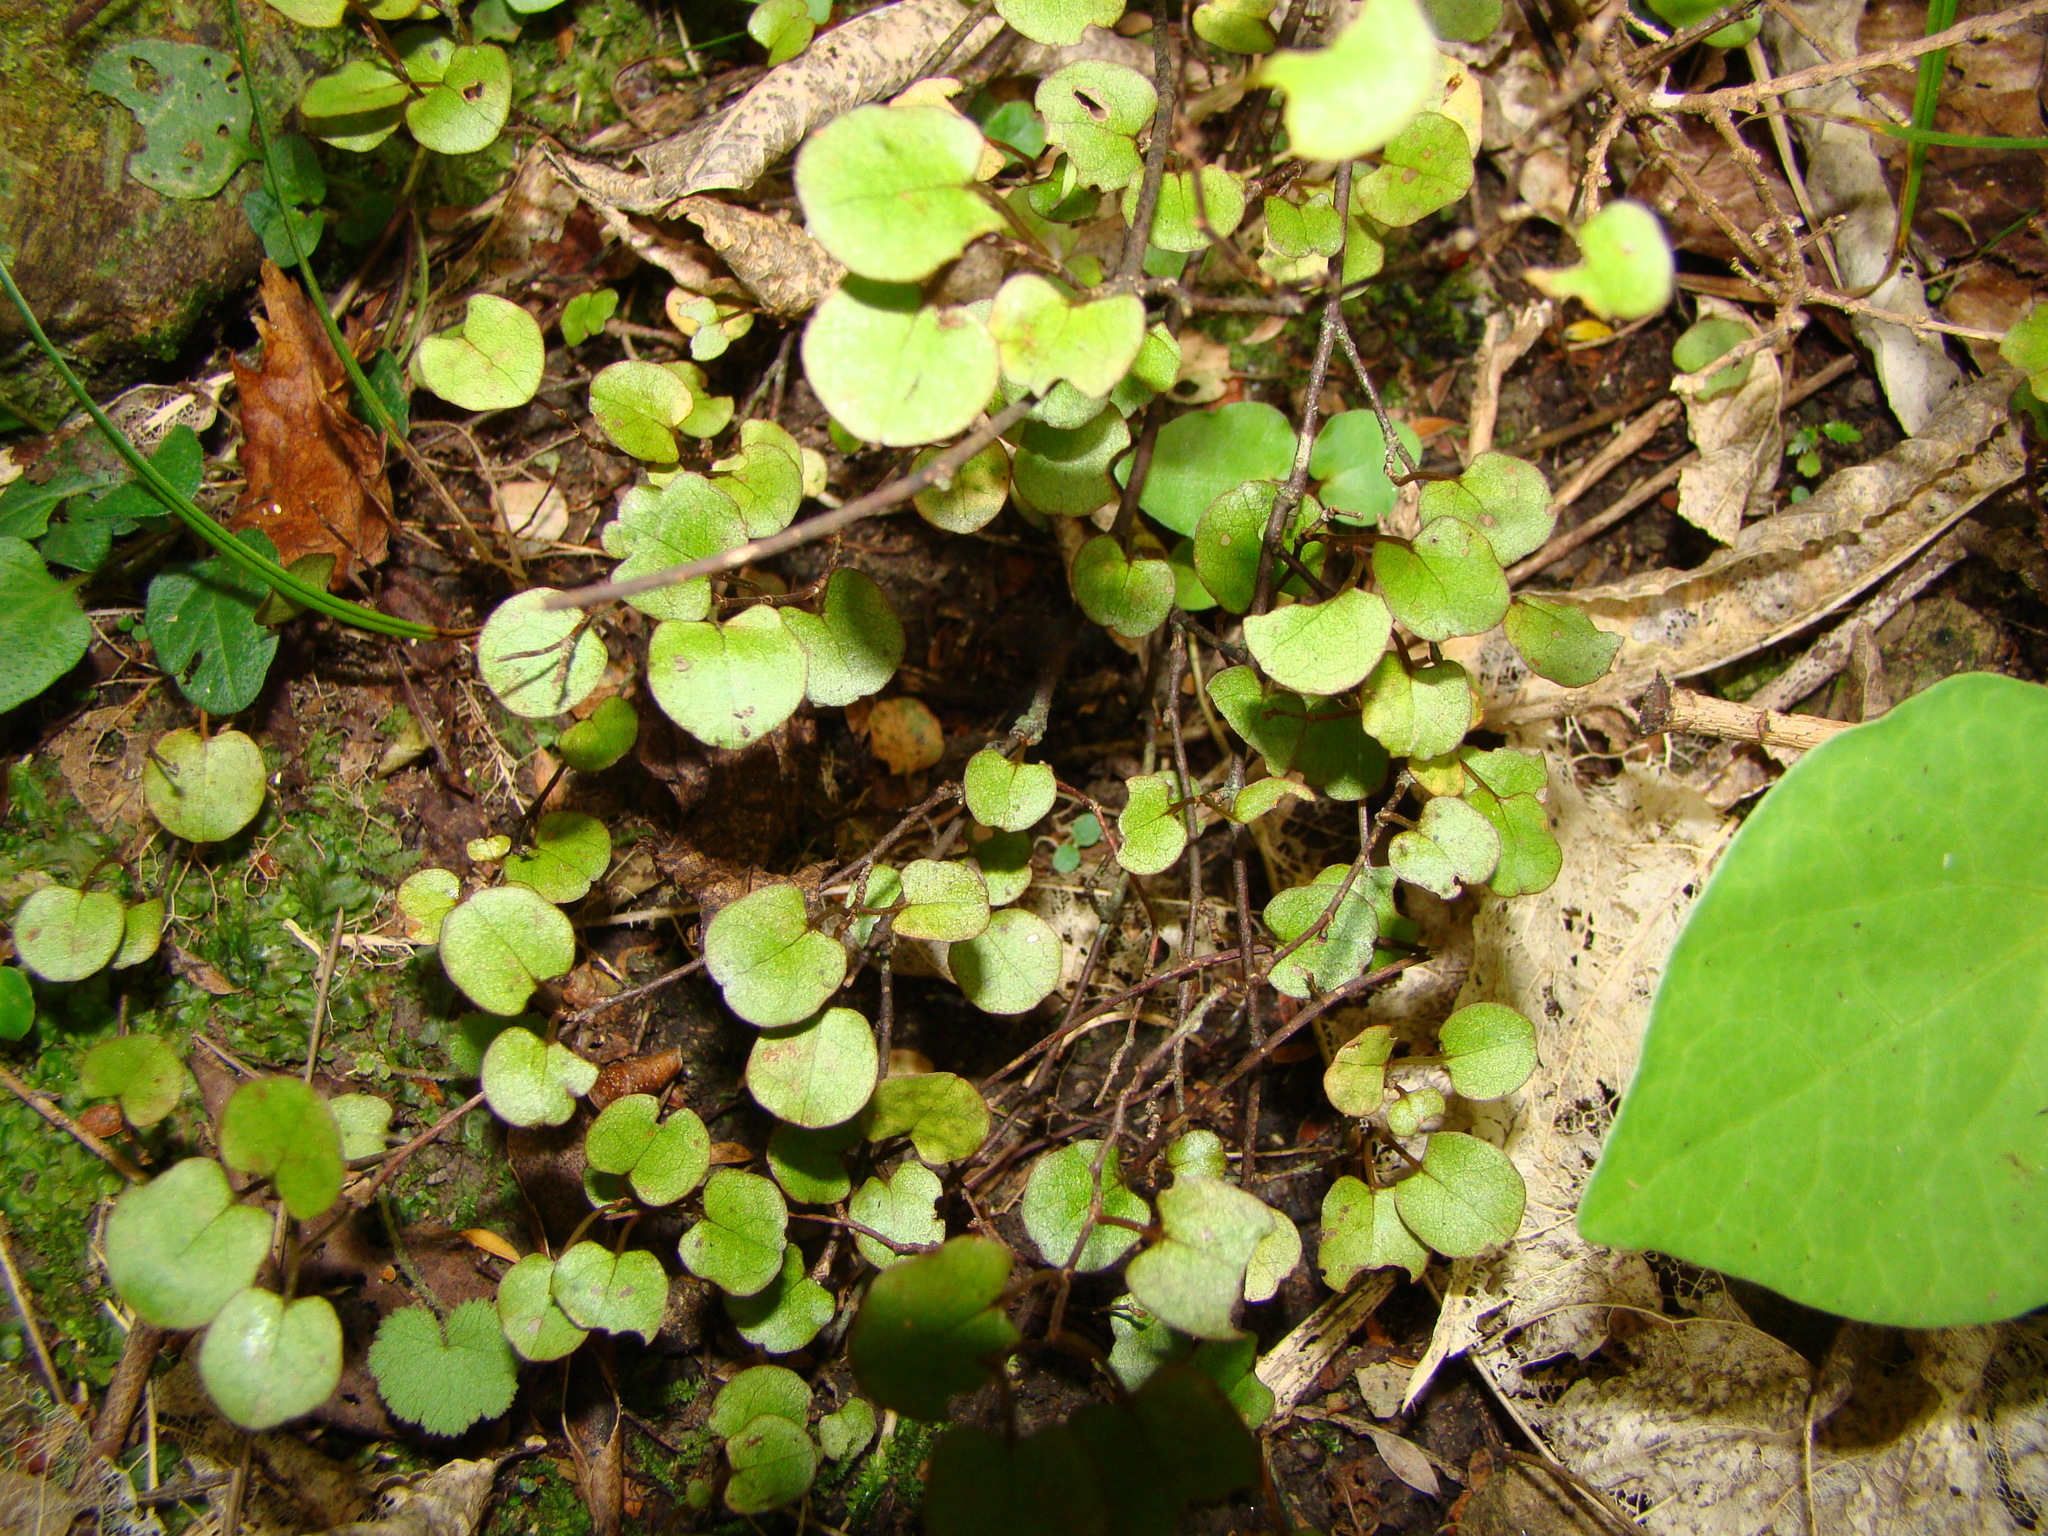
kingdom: Plantae
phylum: Tracheophyta
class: Magnoliopsida
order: Myrtales
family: Onagraceae
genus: Fuchsia
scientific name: Fuchsia perscandens
